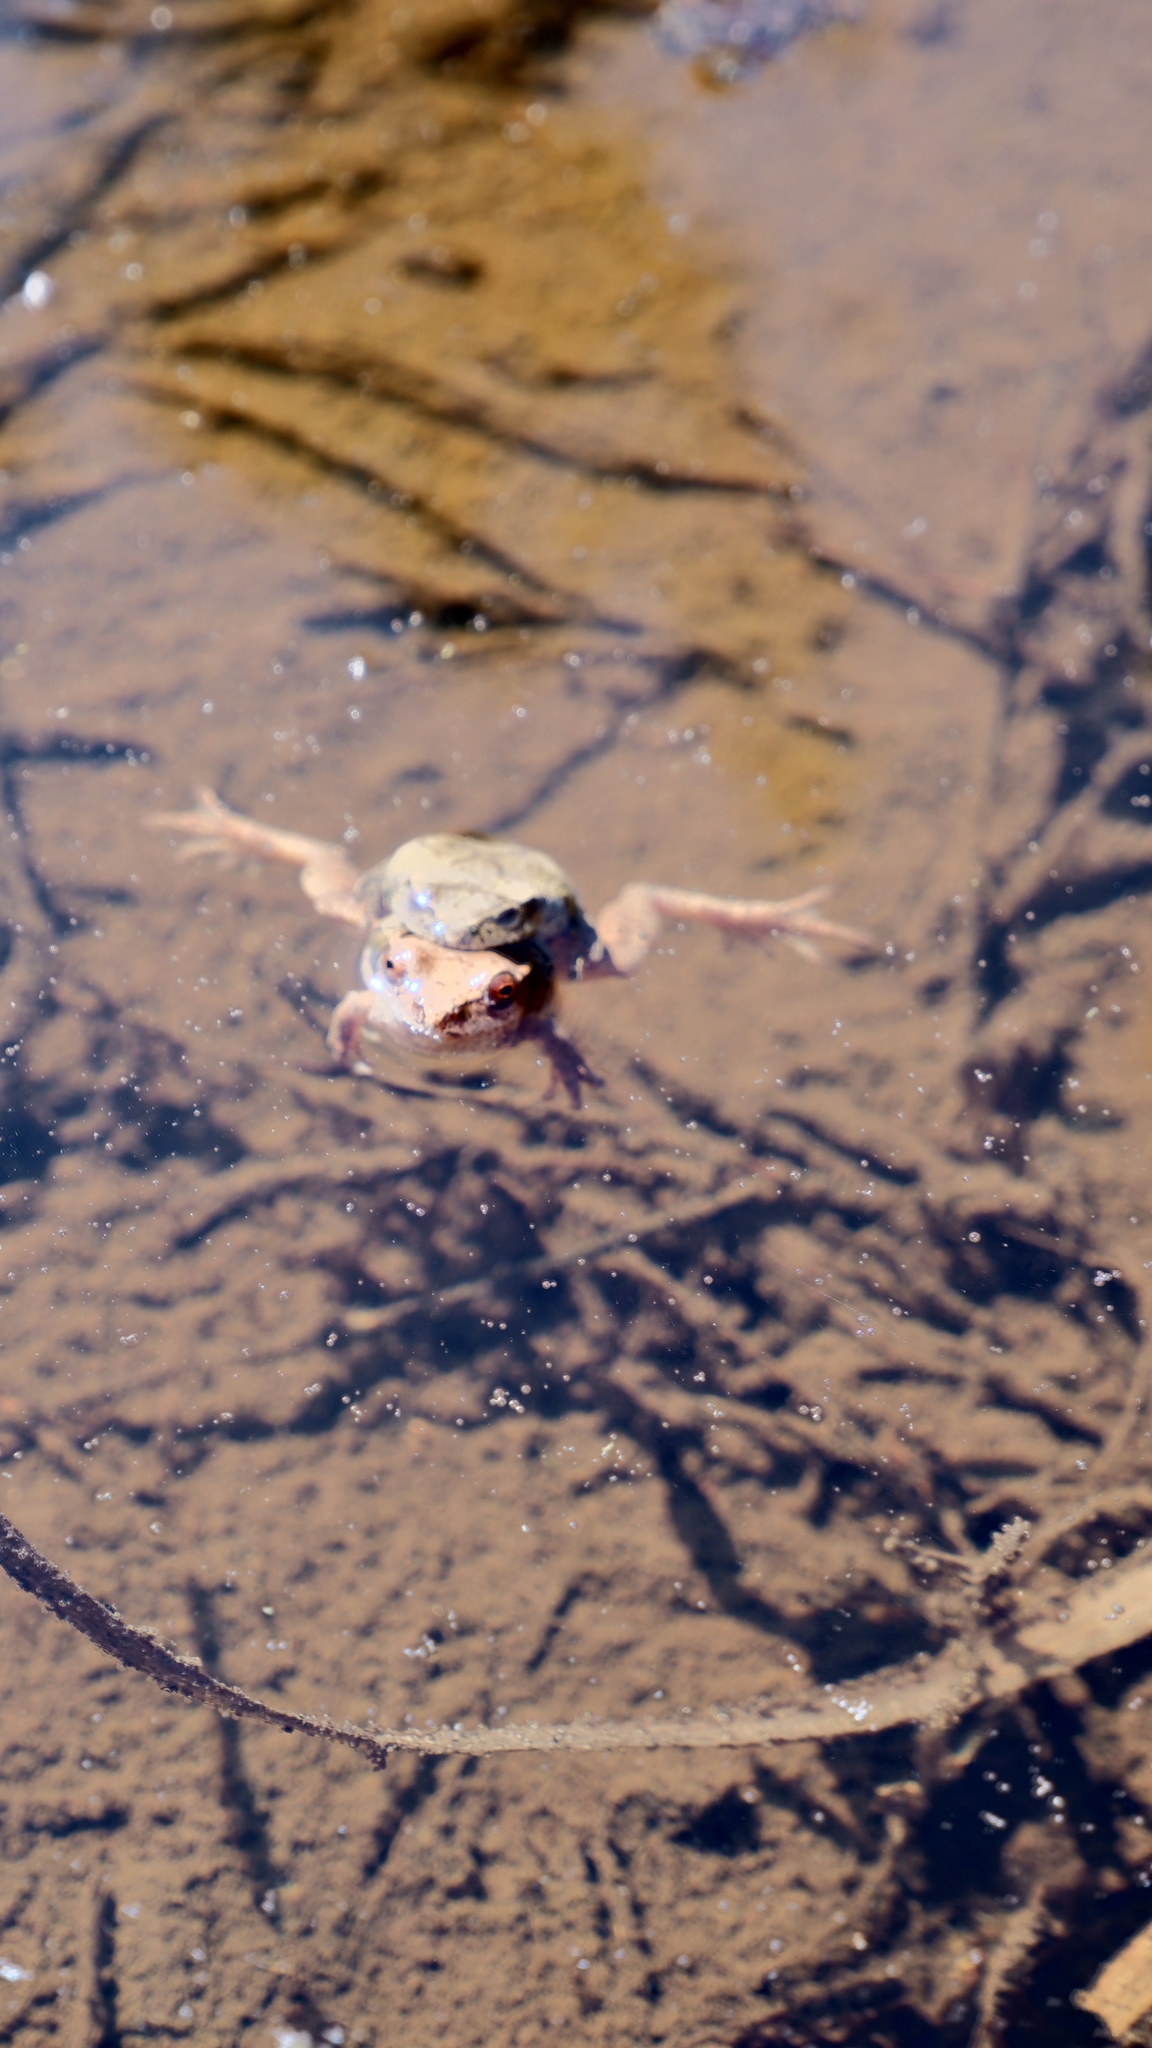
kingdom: Animalia
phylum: Chordata
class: Amphibia
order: Anura
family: Hylidae
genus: Pseudacris
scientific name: Pseudacris crucifer
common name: Spring peeper
